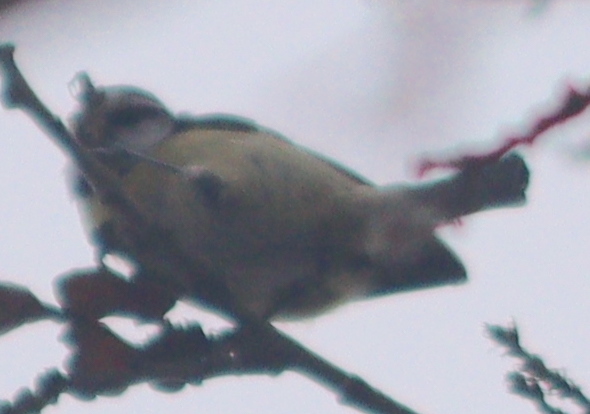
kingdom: Animalia
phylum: Chordata
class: Aves
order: Passeriformes
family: Paridae
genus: Cyanistes
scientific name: Cyanistes caeruleus
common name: Eurasian blue tit
